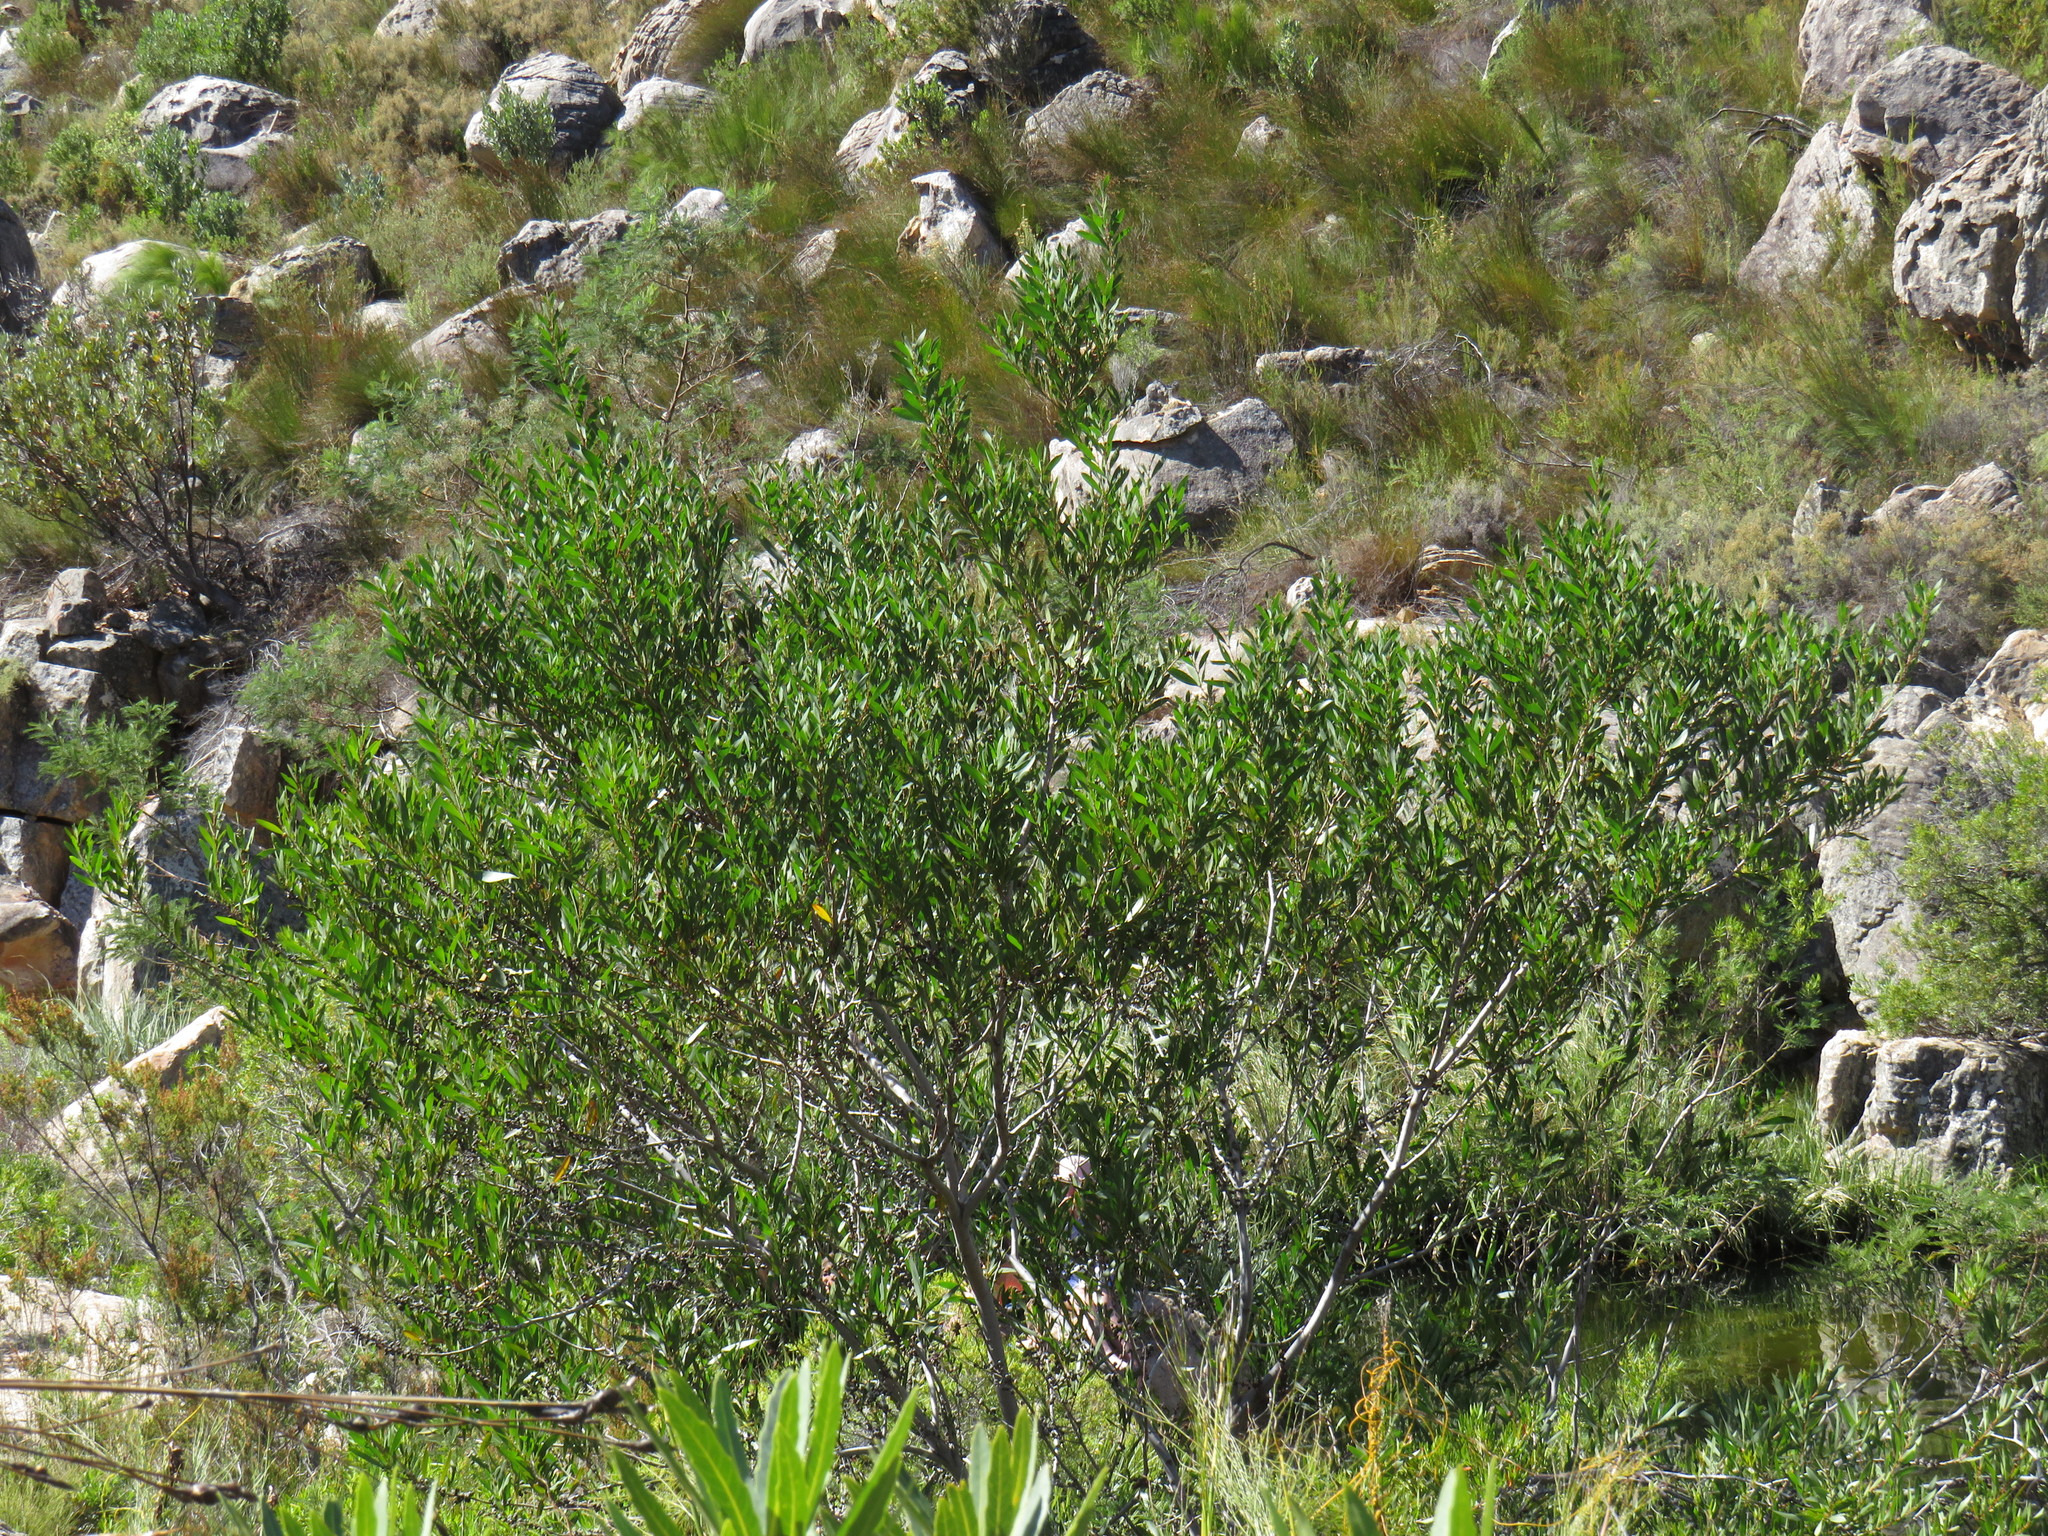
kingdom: Plantae
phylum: Tracheophyta
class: Magnoliopsida
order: Fabales
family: Fabaceae
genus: Acacia
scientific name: Acacia longifolia
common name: Sydney golden wattle
